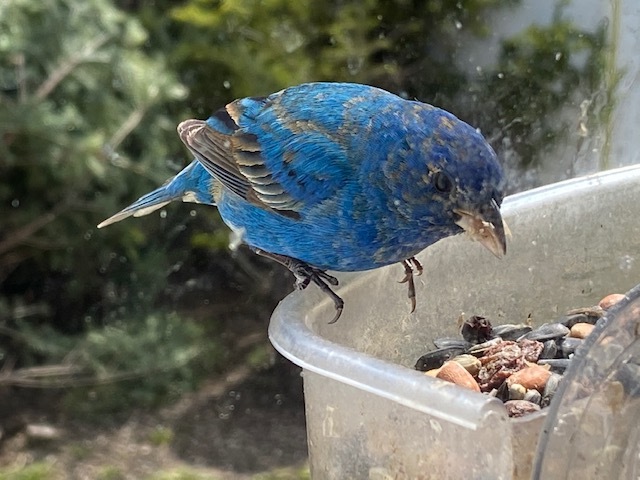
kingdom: Animalia
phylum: Chordata
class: Aves
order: Passeriformes
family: Cardinalidae
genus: Passerina
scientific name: Passerina cyanea
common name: Indigo bunting
